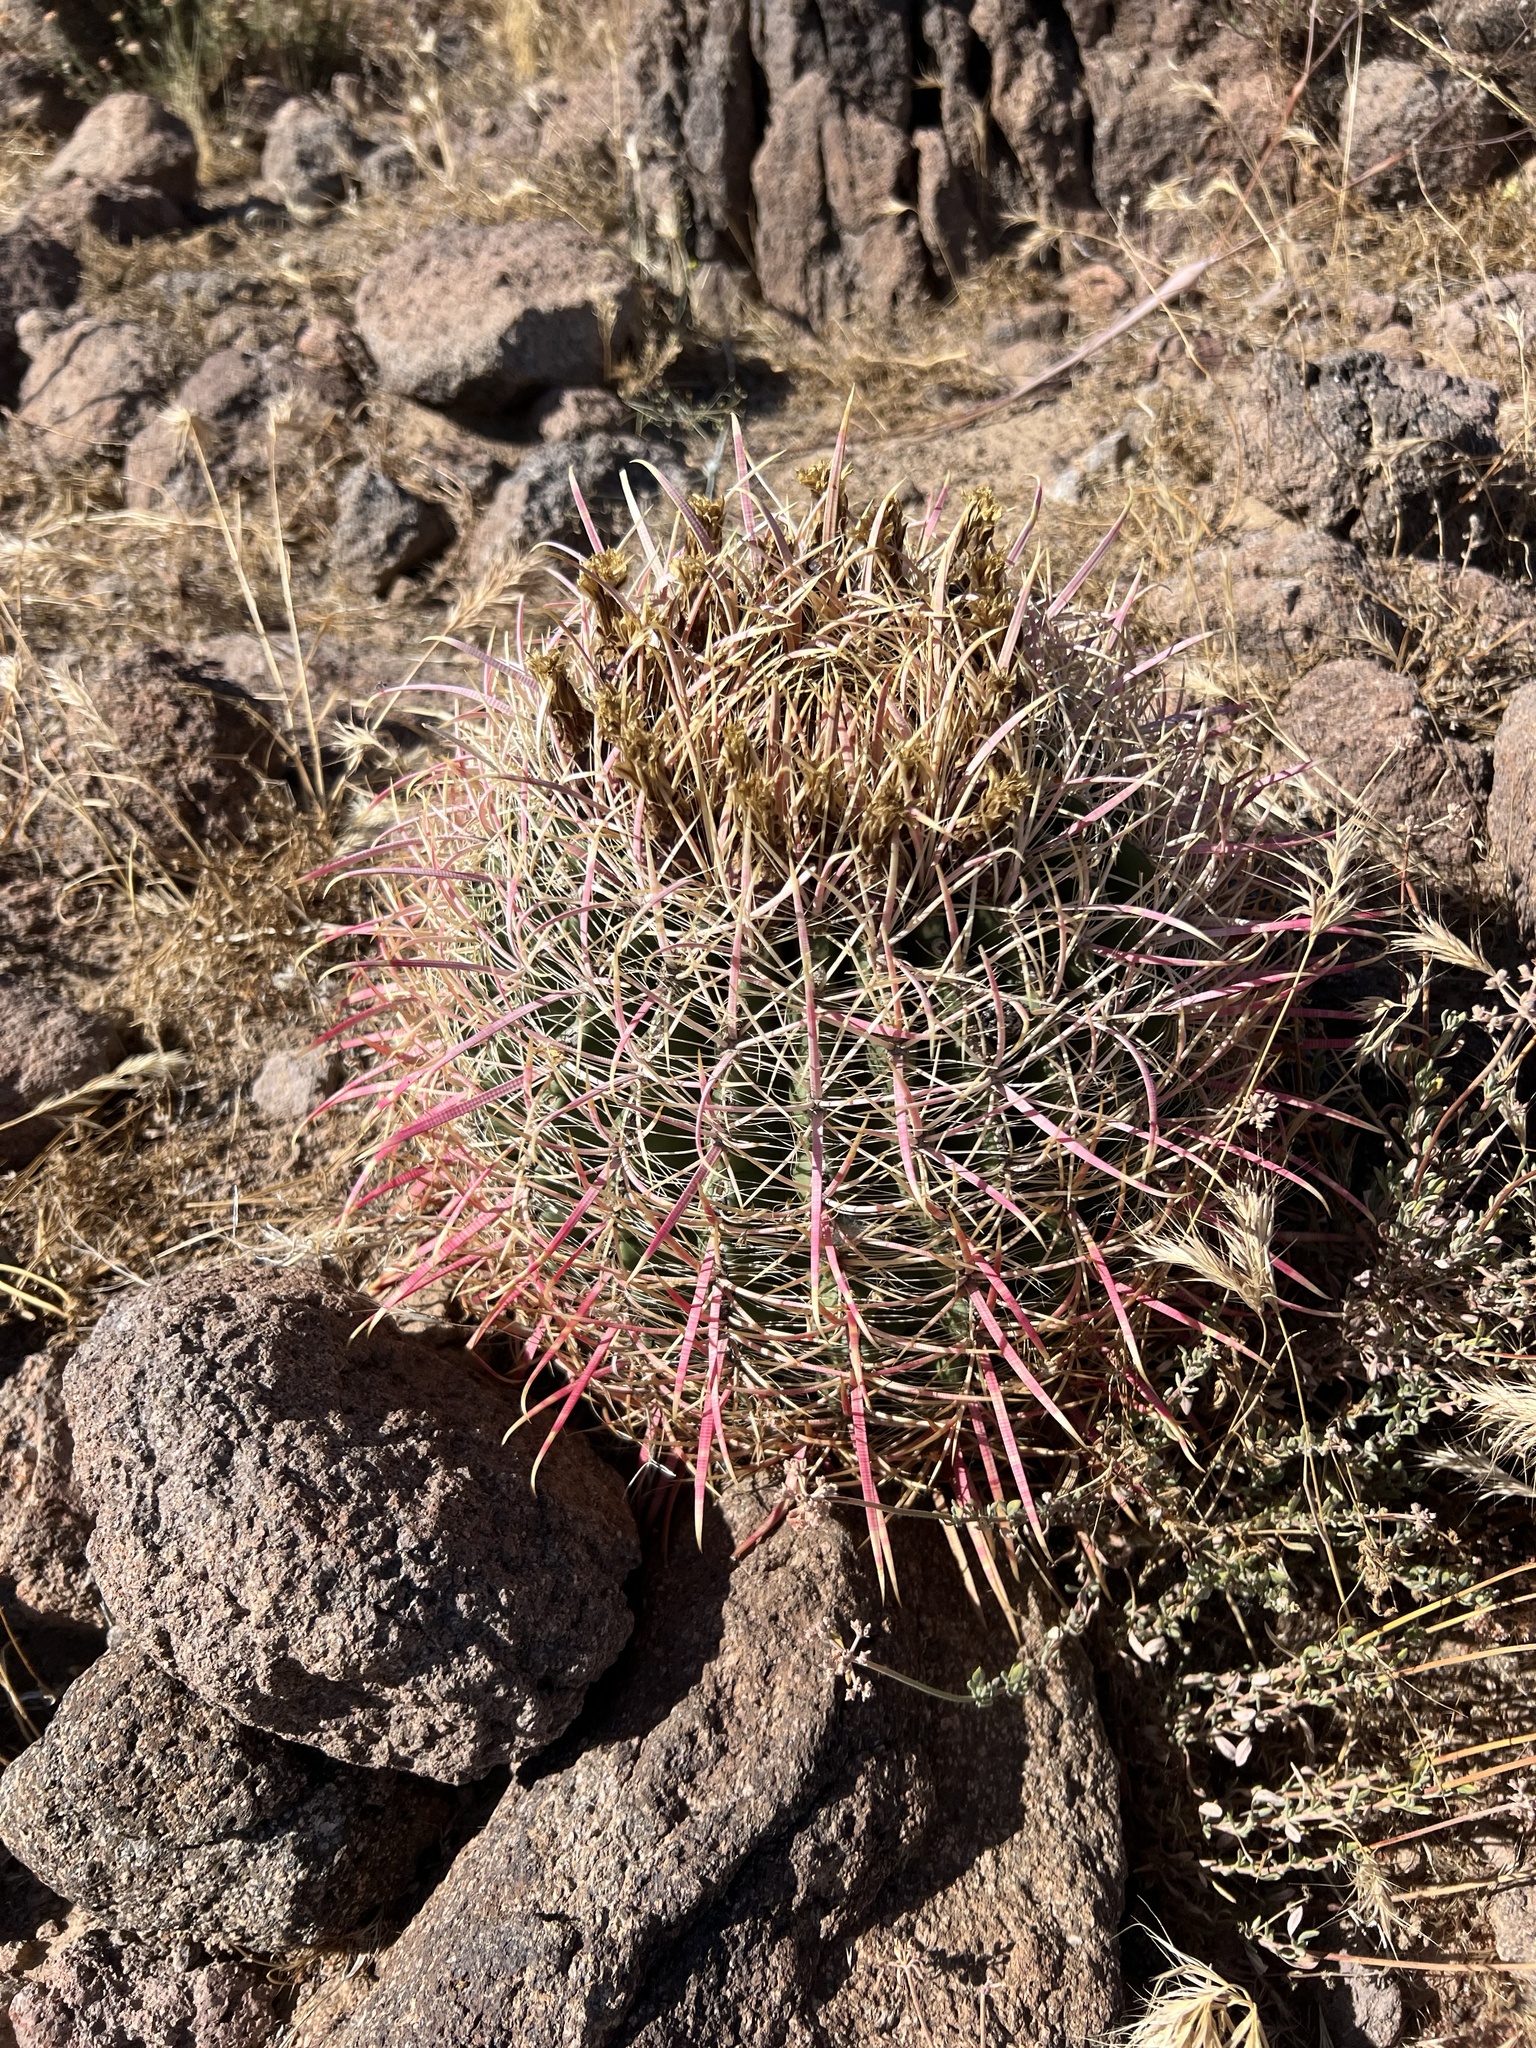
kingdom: Plantae
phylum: Tracheophyta
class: Magnoliopsida
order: Caryophyllales
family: Cactaceae
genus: Ferocactus
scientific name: Ferocactus cylindraceus
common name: California barrel cactus
